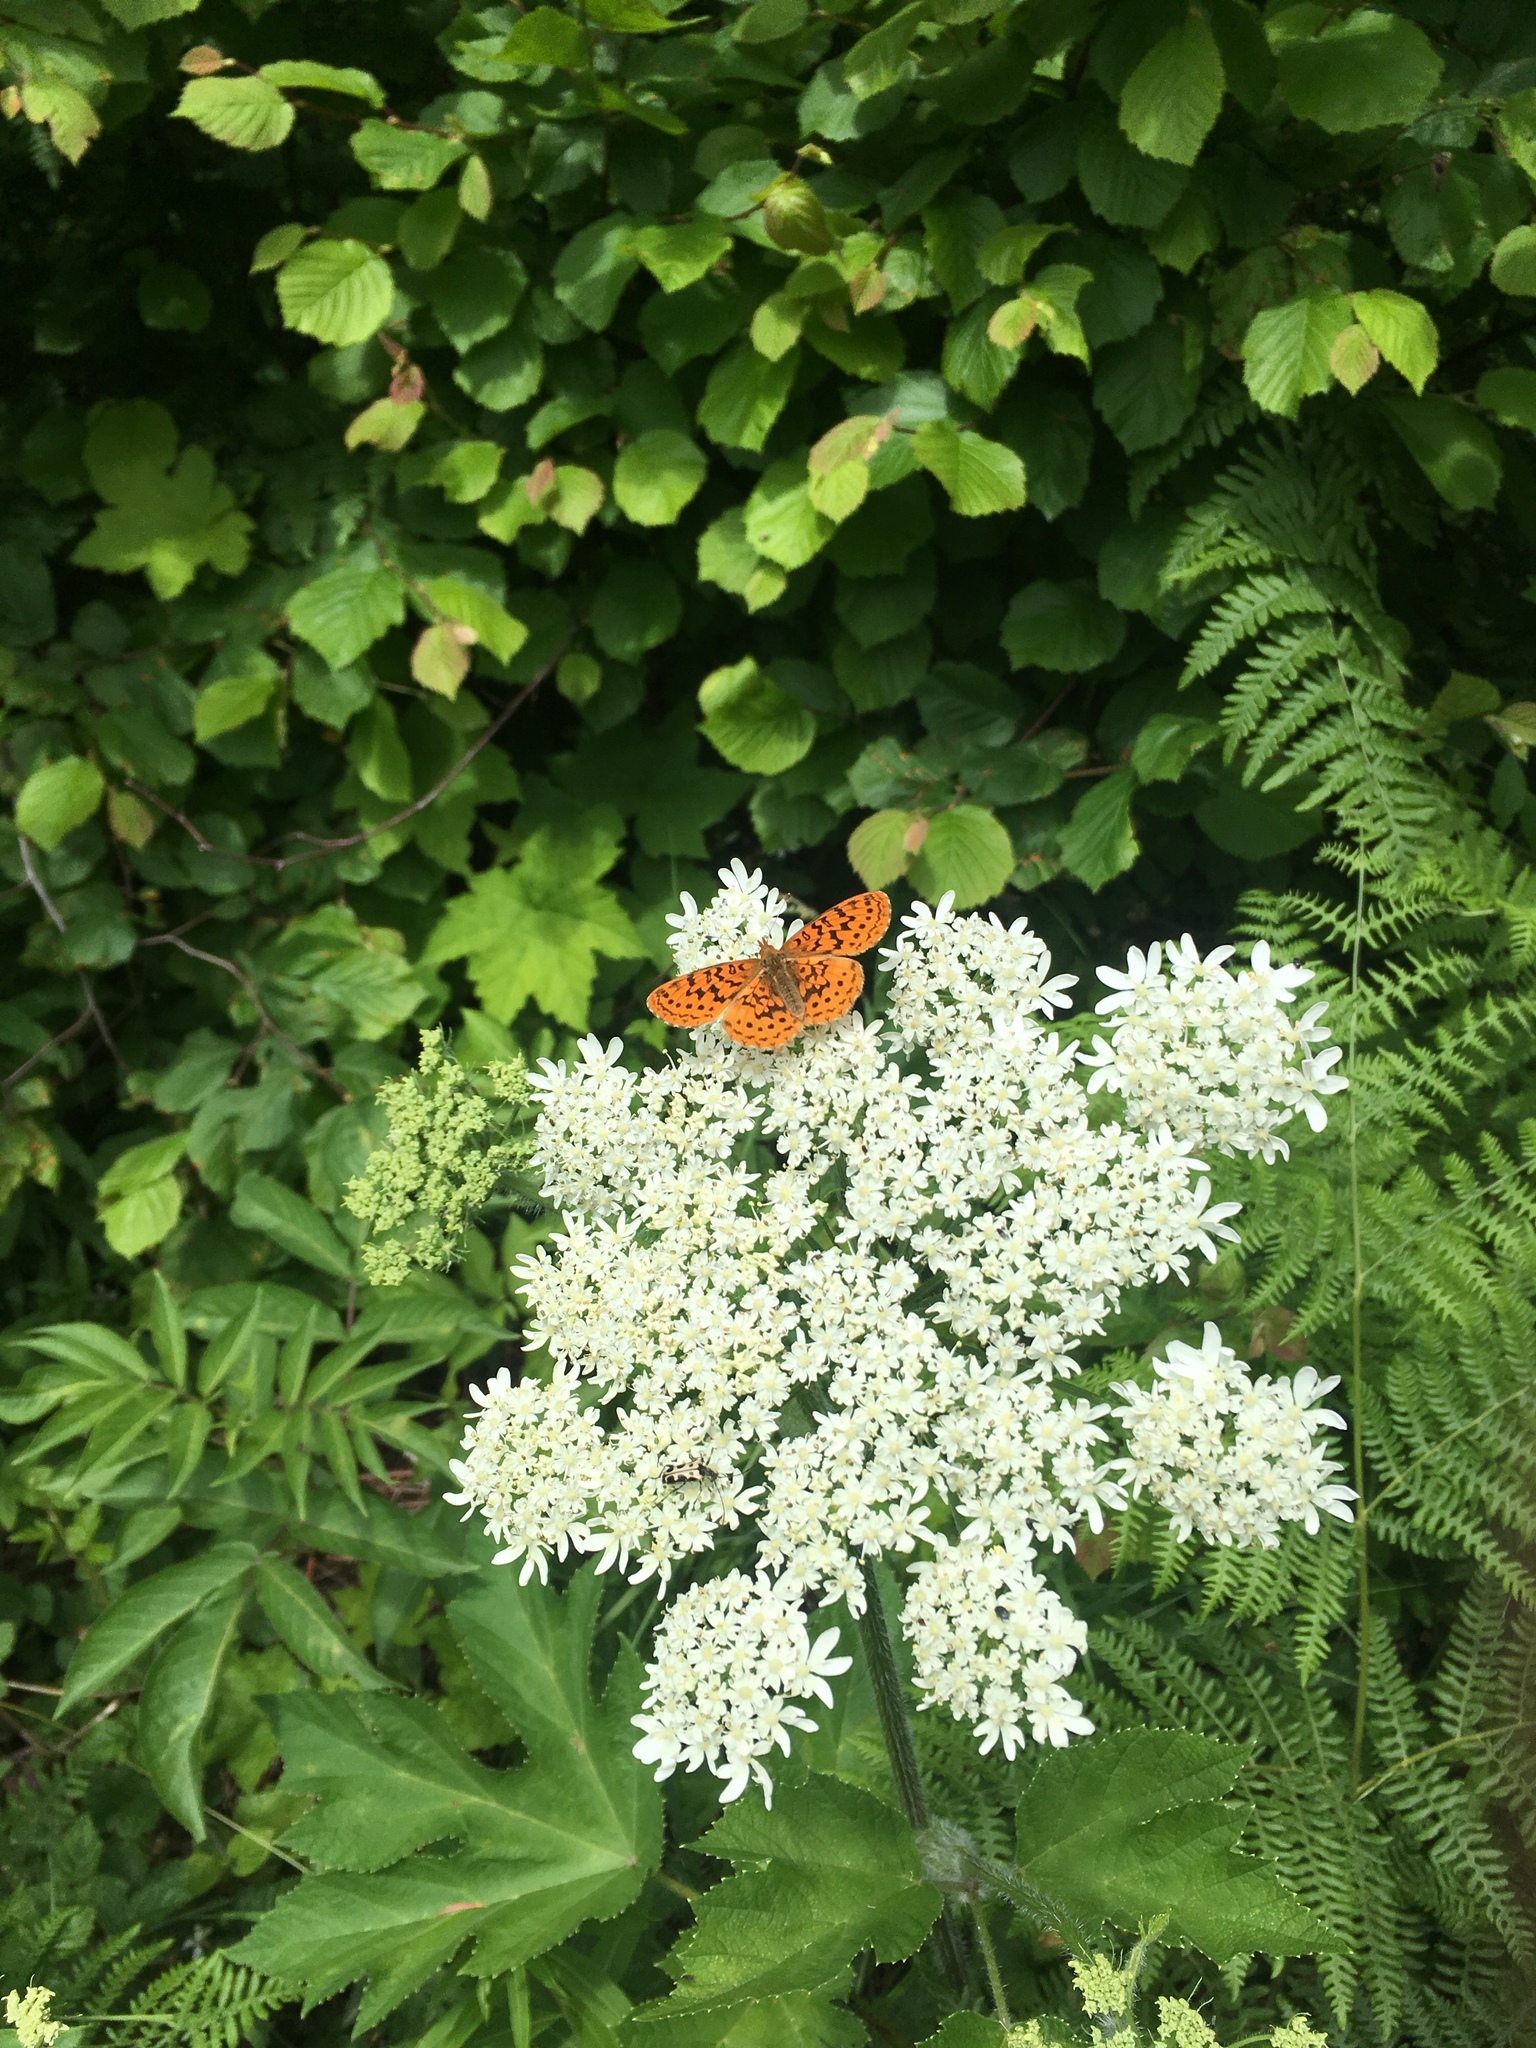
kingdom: Animalia
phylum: Arthropoda
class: Insecta
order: Lepidoptera
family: Nymphalidae
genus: Boloria
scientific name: Boloria epithore
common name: Pacific fritillary
